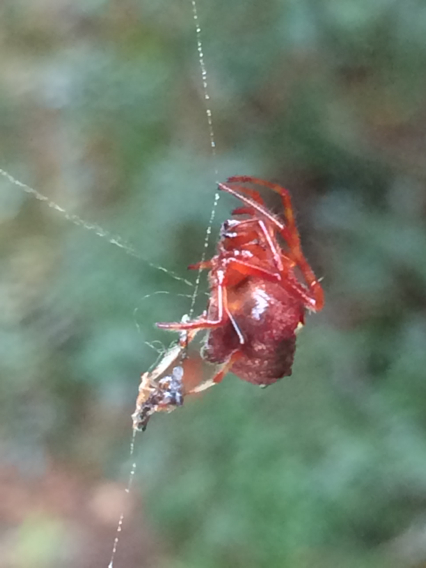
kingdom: Animalia
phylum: Arthropoda
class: Arachnida
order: Araneae
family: Araneidae
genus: Verrucosa
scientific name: Verrucosa arenata
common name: Orb weavers
